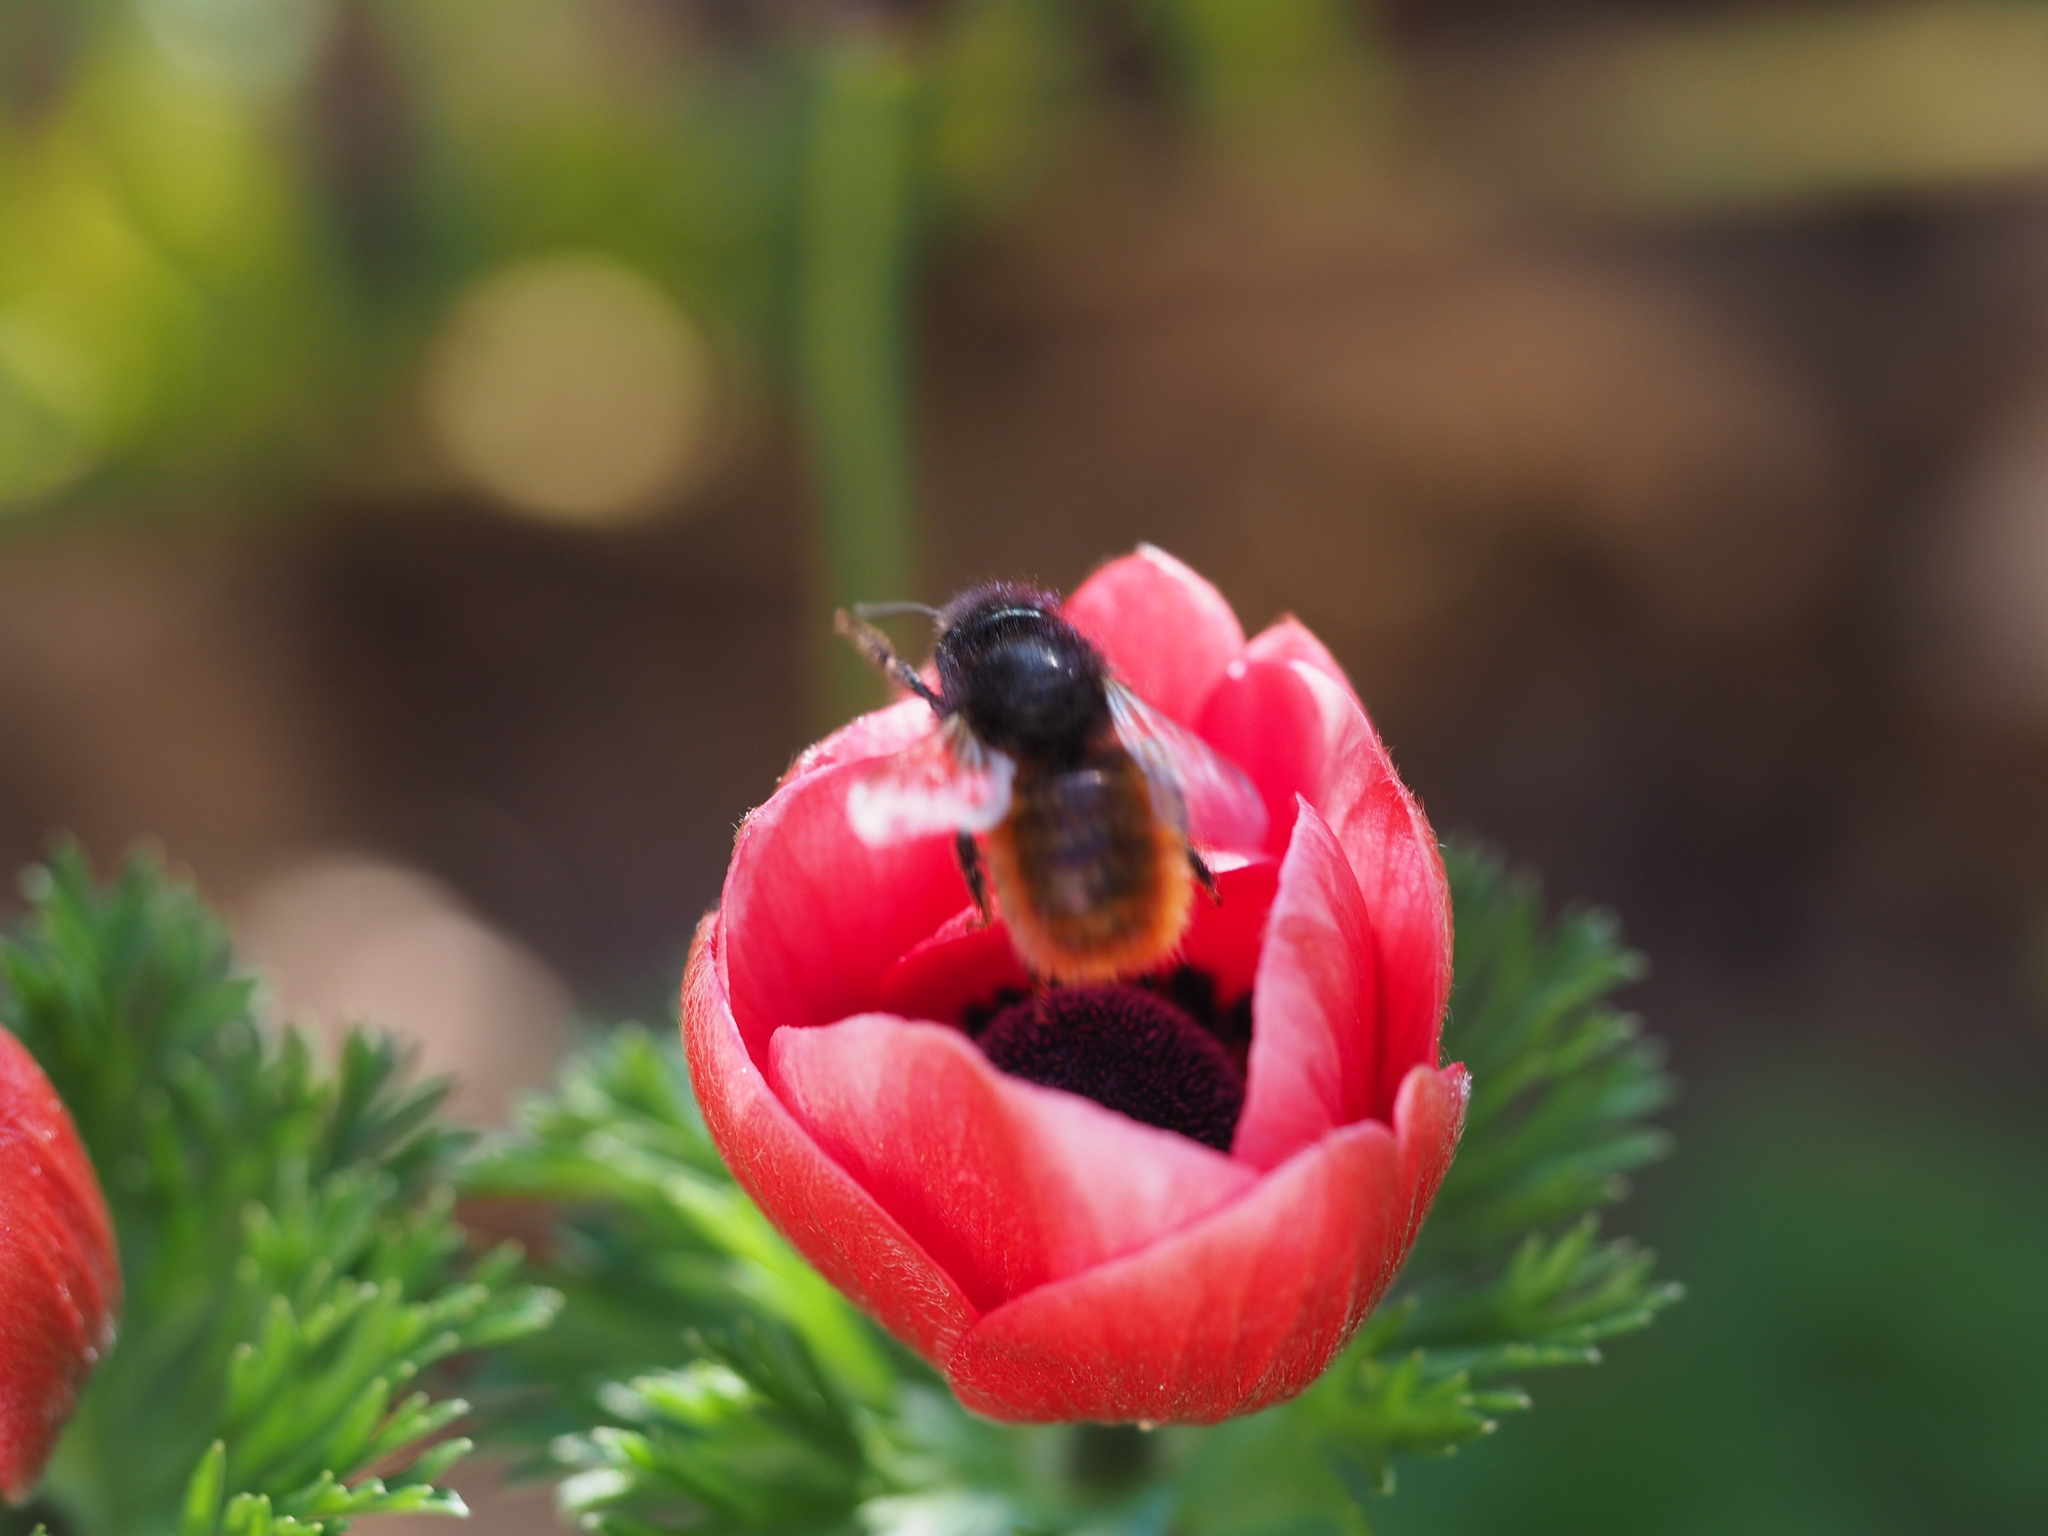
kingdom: Animalia
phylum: Arthropoda
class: Insecta
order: Hymenoptera
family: Megachilidae
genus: Osmia
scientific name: Osmia cornuta
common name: Mason bee
